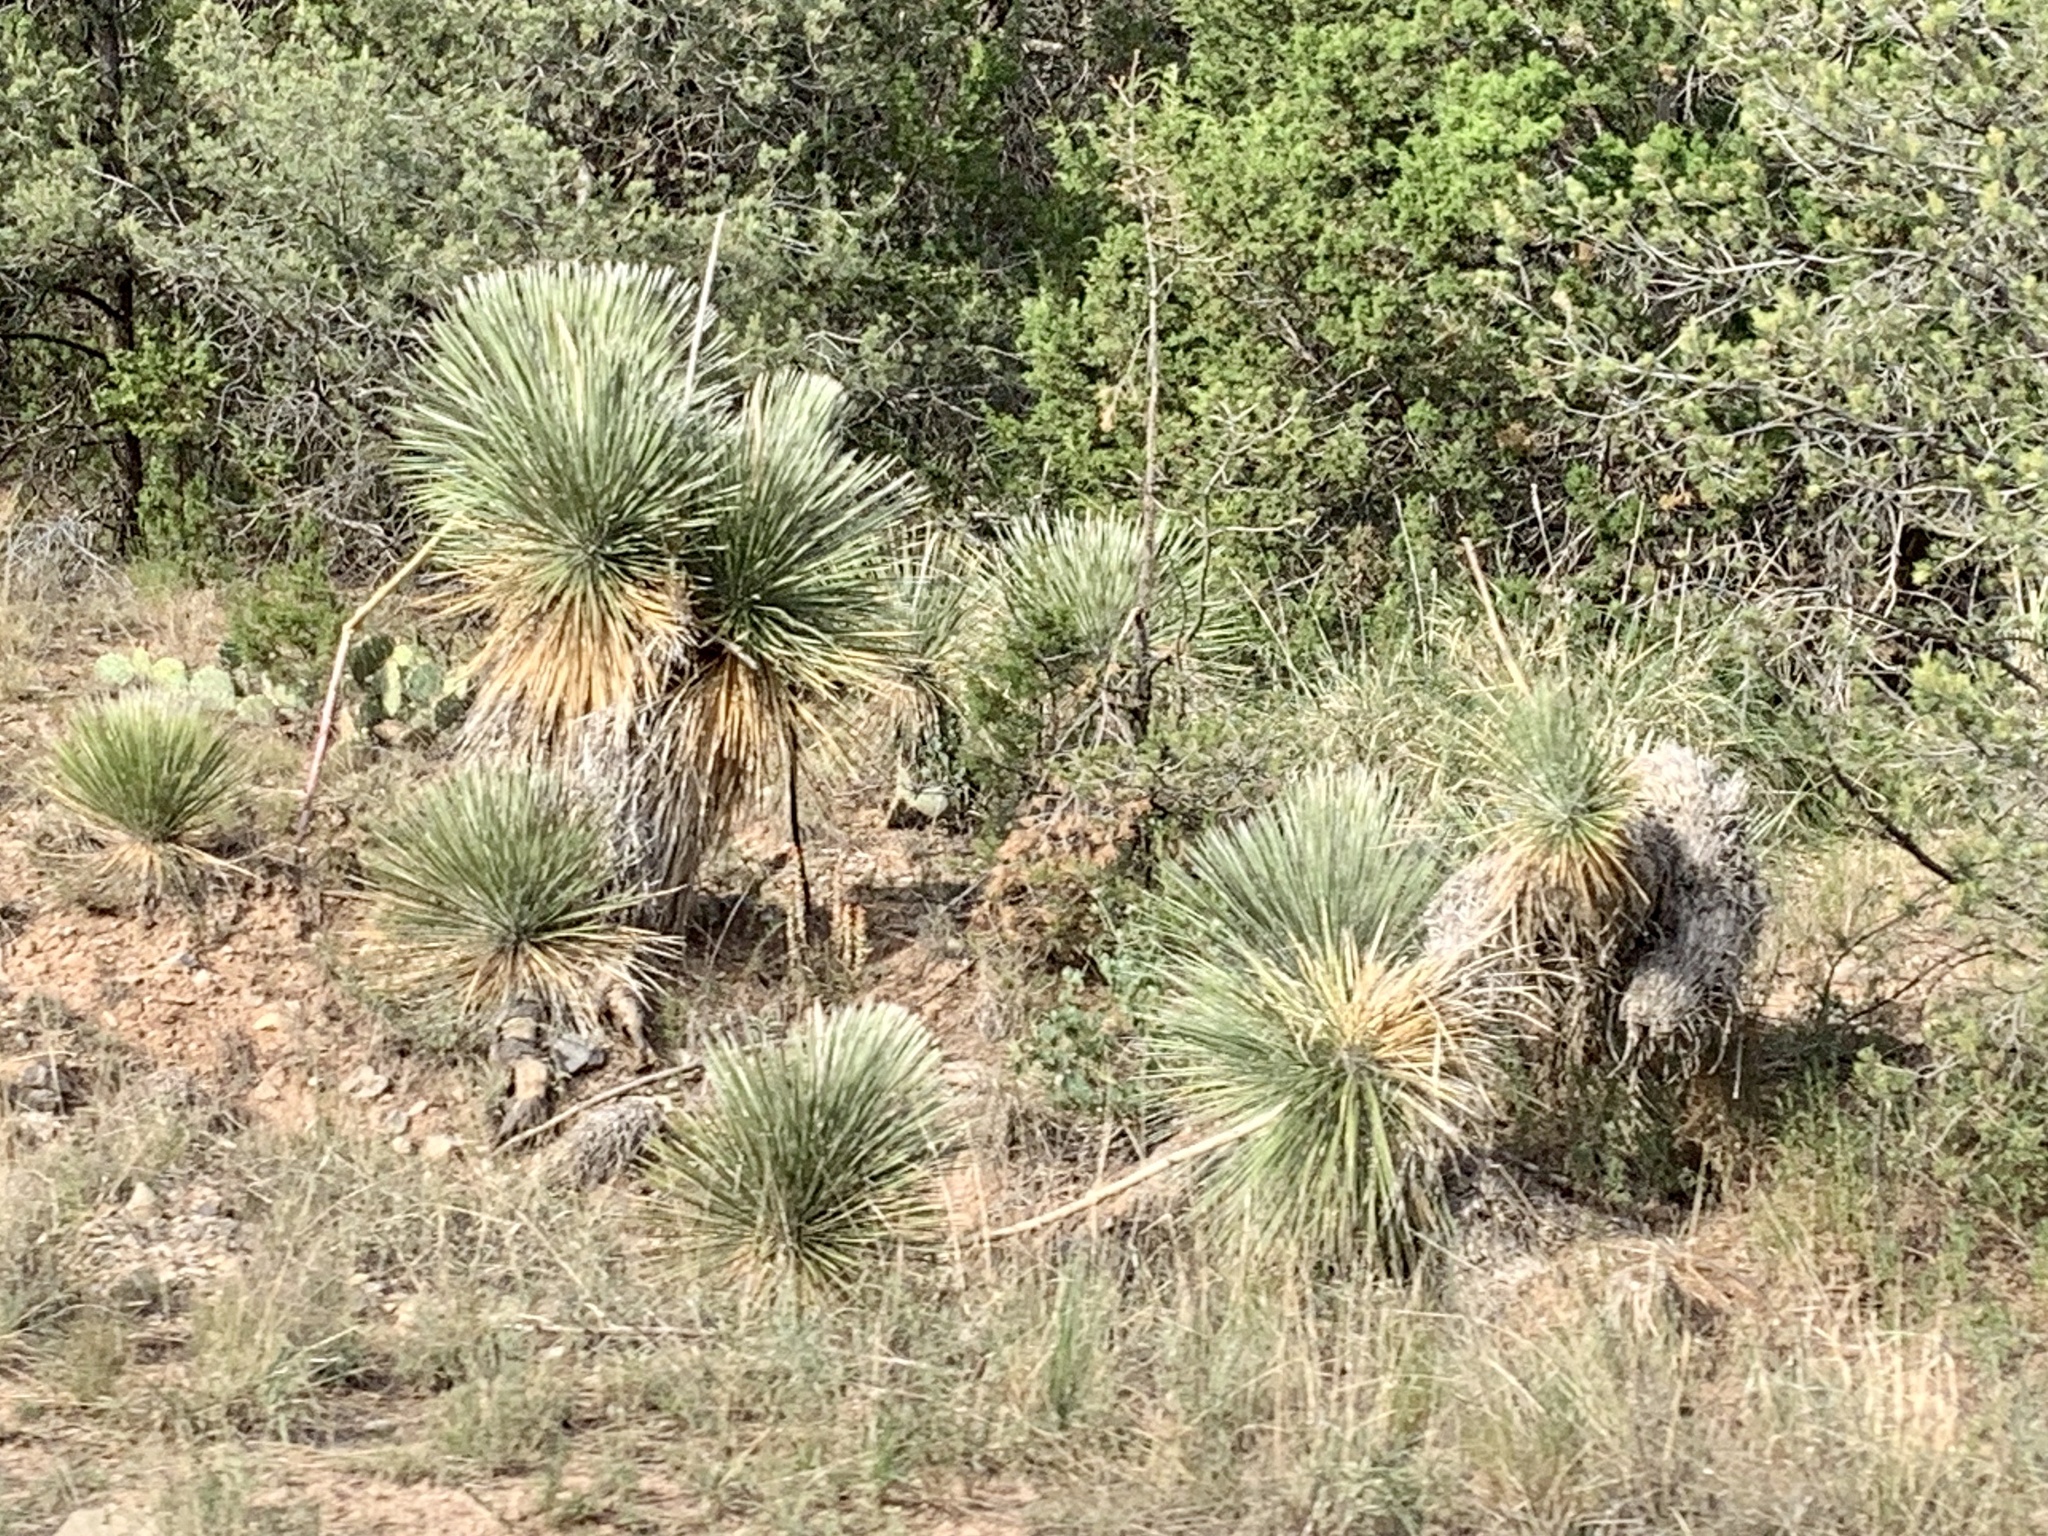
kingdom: Plantae
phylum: Tracheophyta
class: Liliopsida
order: Asparagales
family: Asparagaceae
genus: Yucca
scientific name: Yucca elata
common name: Palmella
